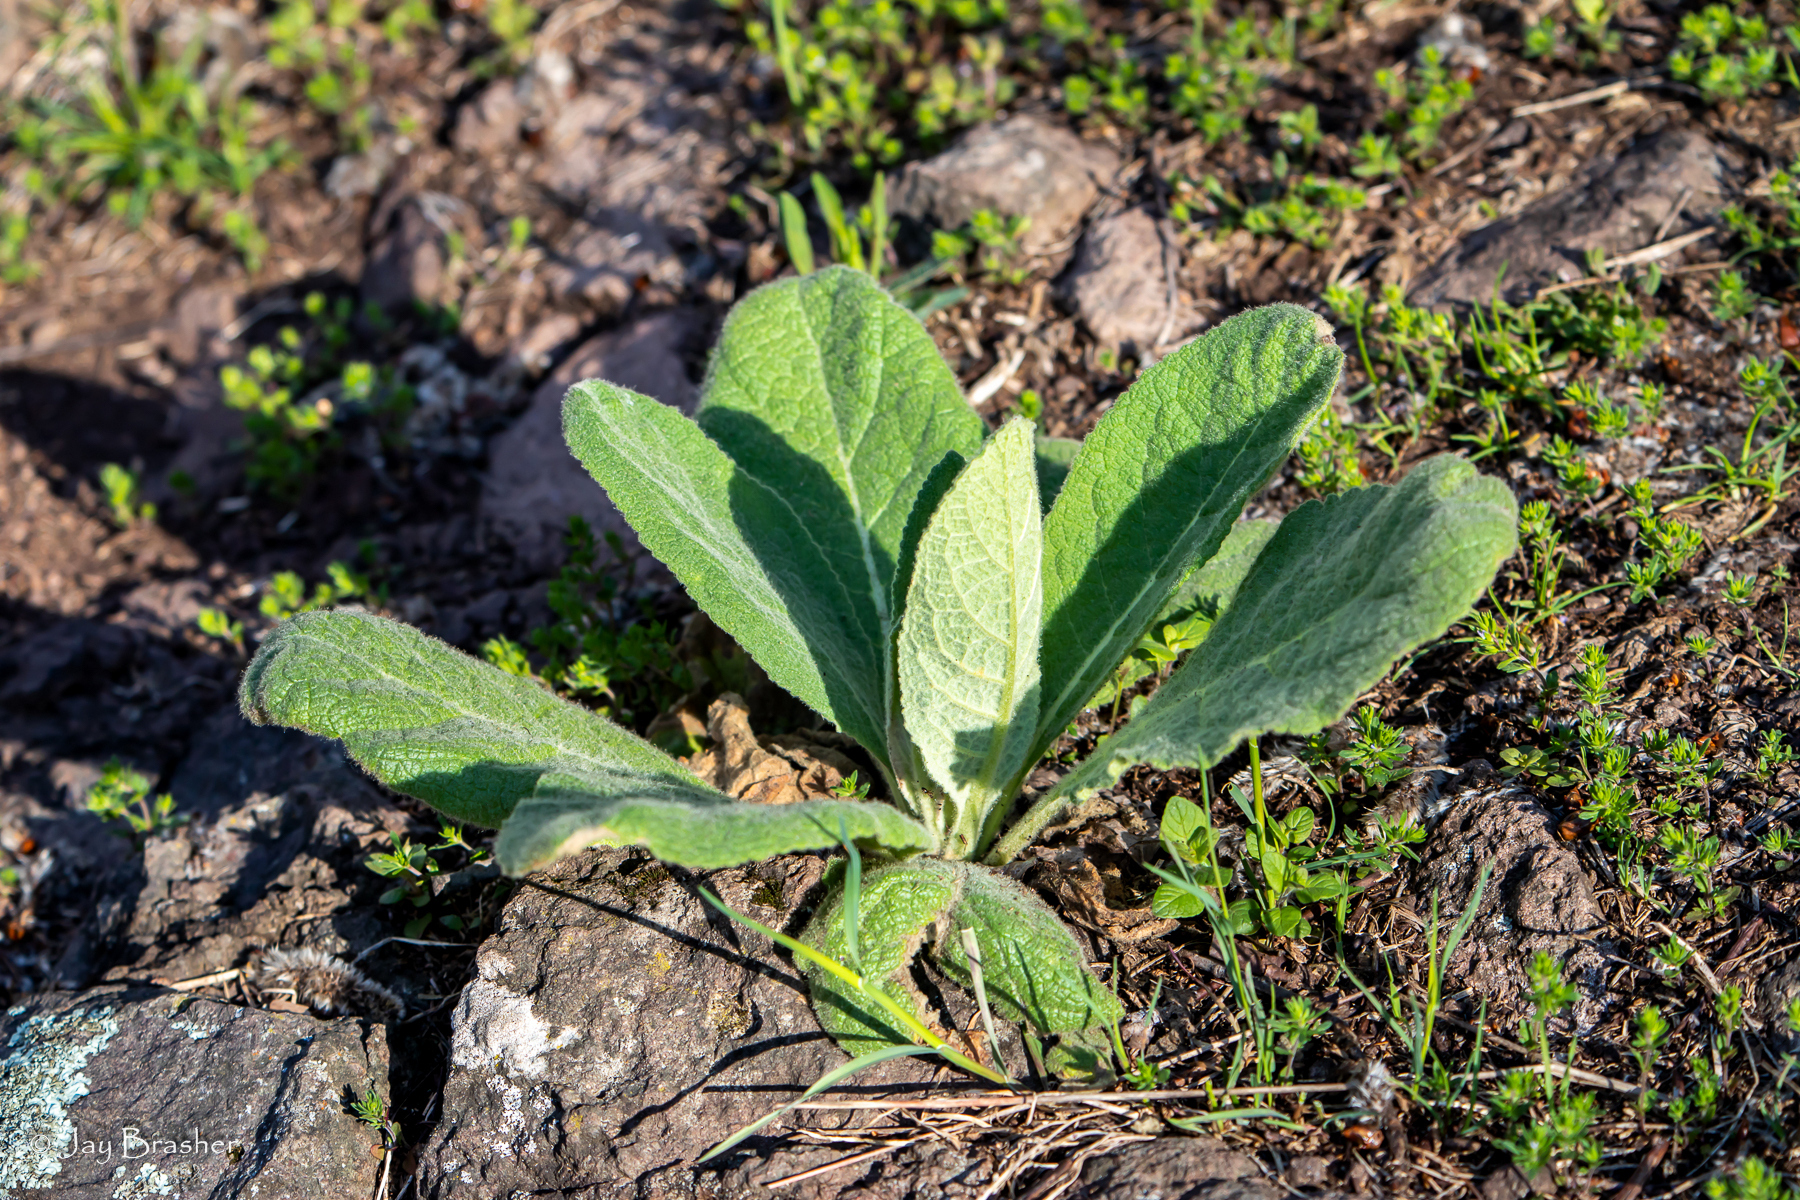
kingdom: Plantae
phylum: Tracheophyta
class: Magnoliopsida
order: Lamiales
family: Scrophulariaceae
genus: Verbascum
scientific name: Verbascum thapsus
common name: Common mullein
